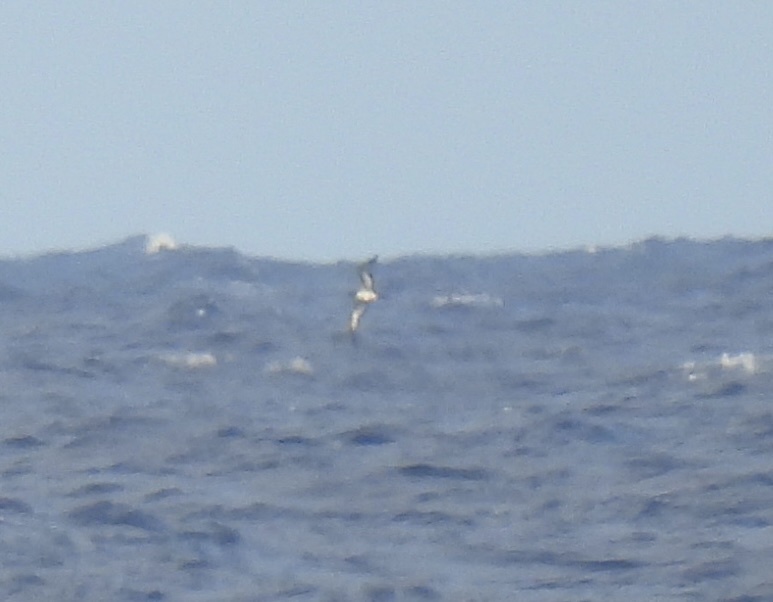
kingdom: Animalia
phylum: Chordata
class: Aves
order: Procellariiformes
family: Procellariidae
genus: Puffinus
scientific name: Puffinus pacificus
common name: Wedge-tailed shearwater
